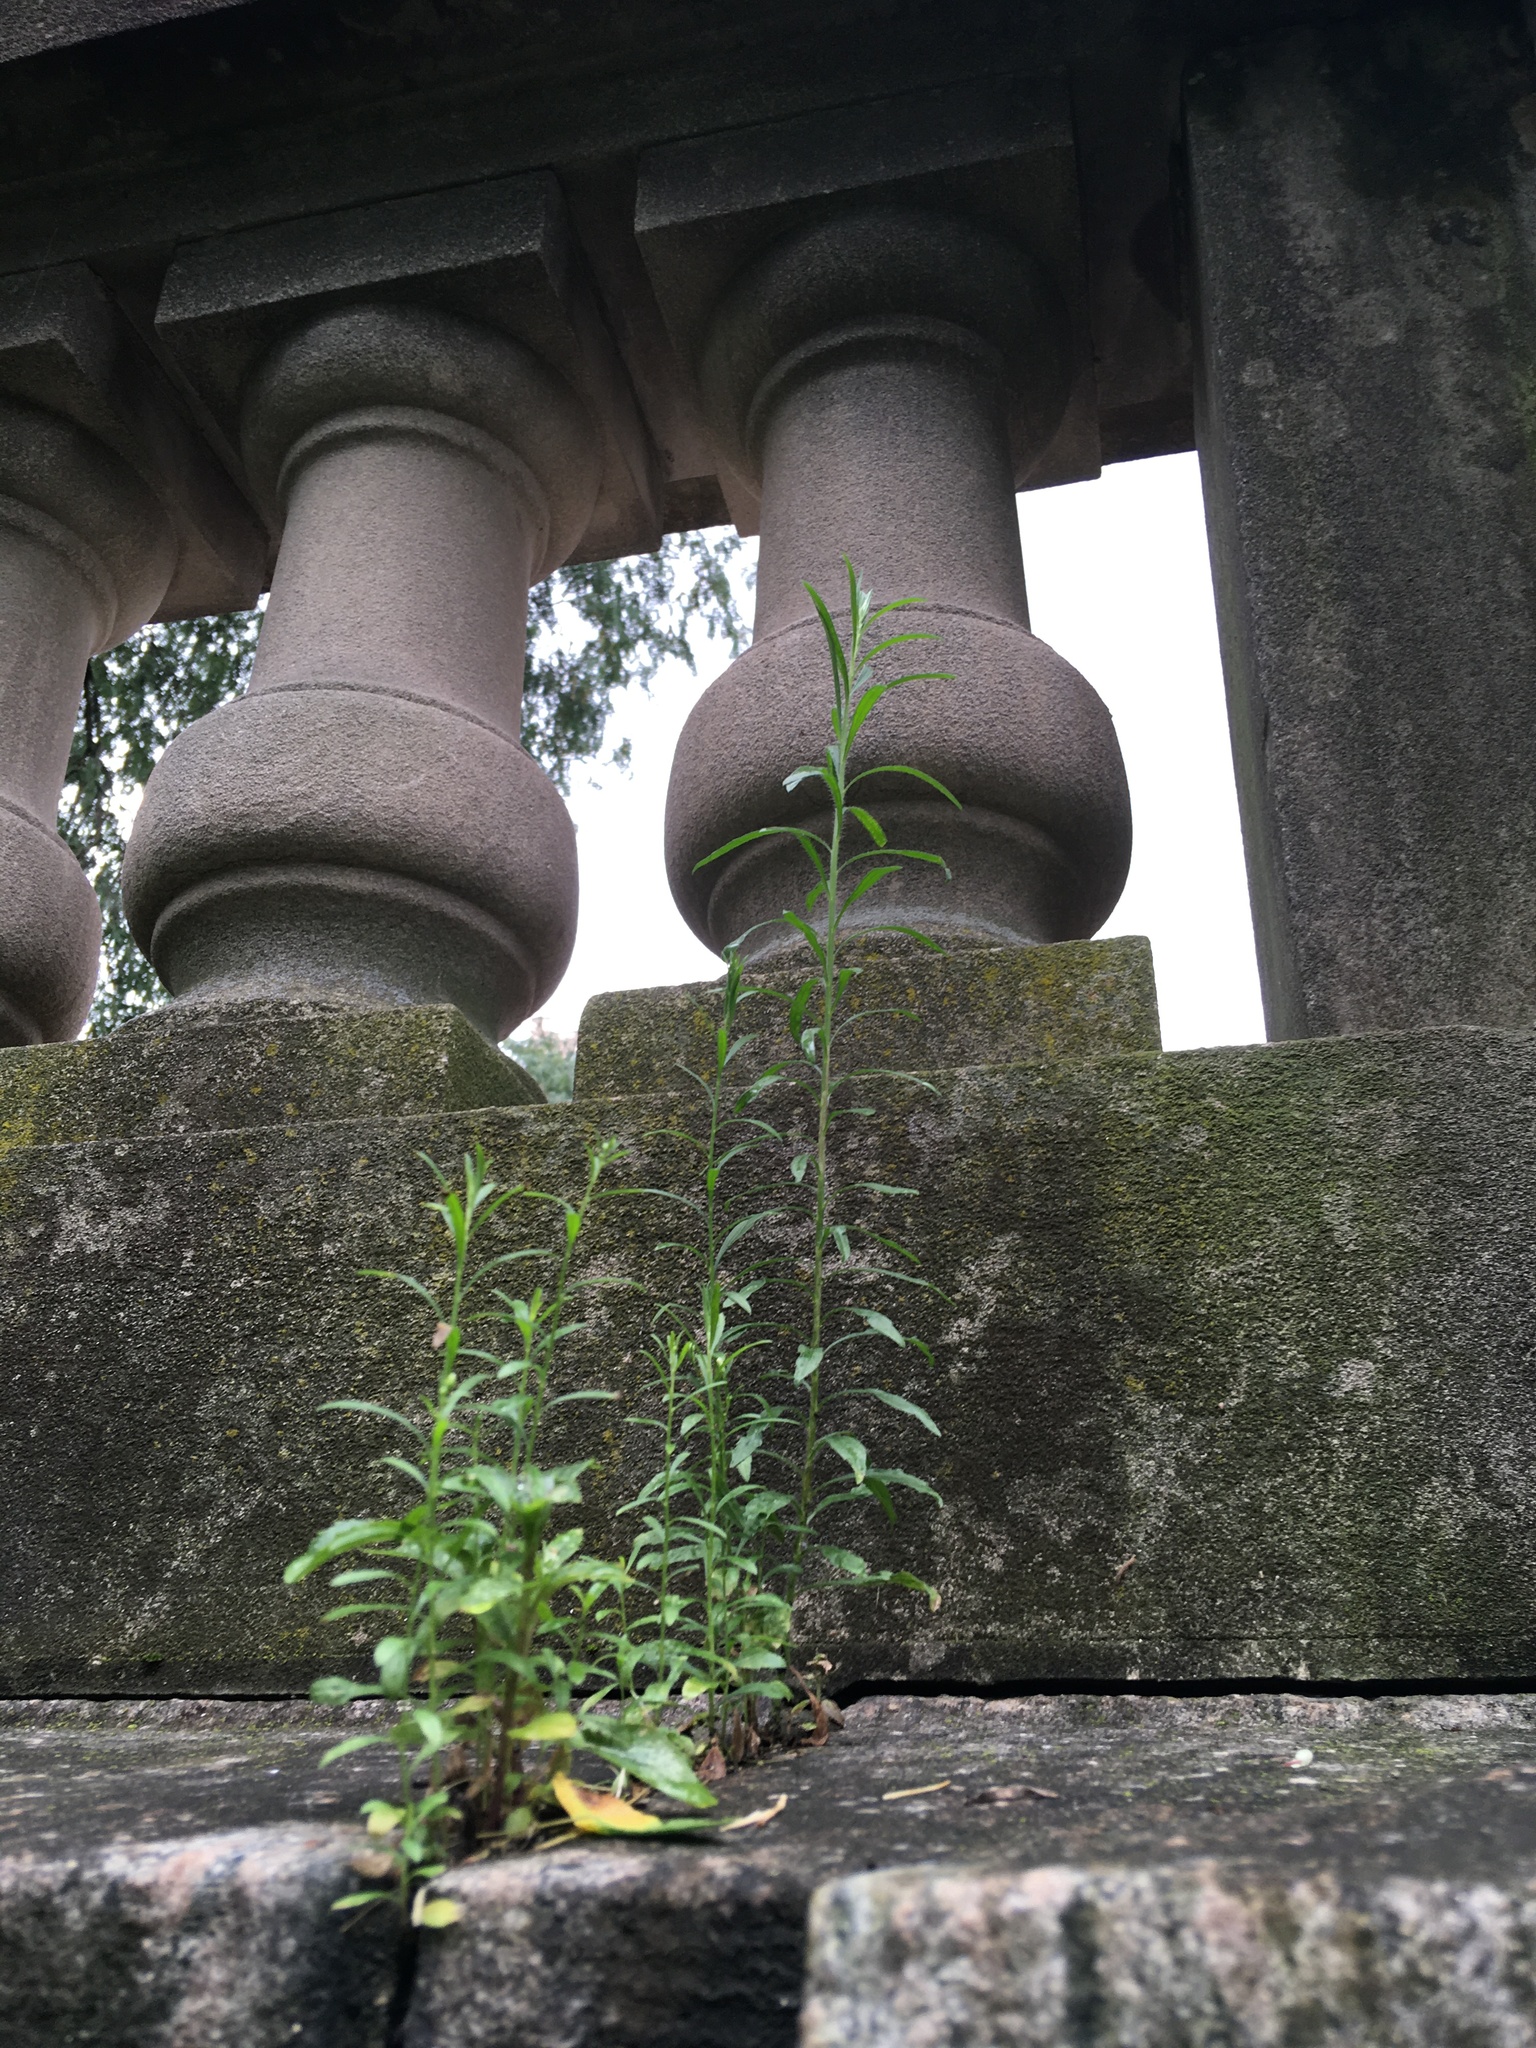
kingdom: Plantae
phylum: Tracheophyta
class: Magnoliopsida
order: Asterales
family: Asteraceae
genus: Erigeron
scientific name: Erigeron canadensis
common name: Canadian fleabane
